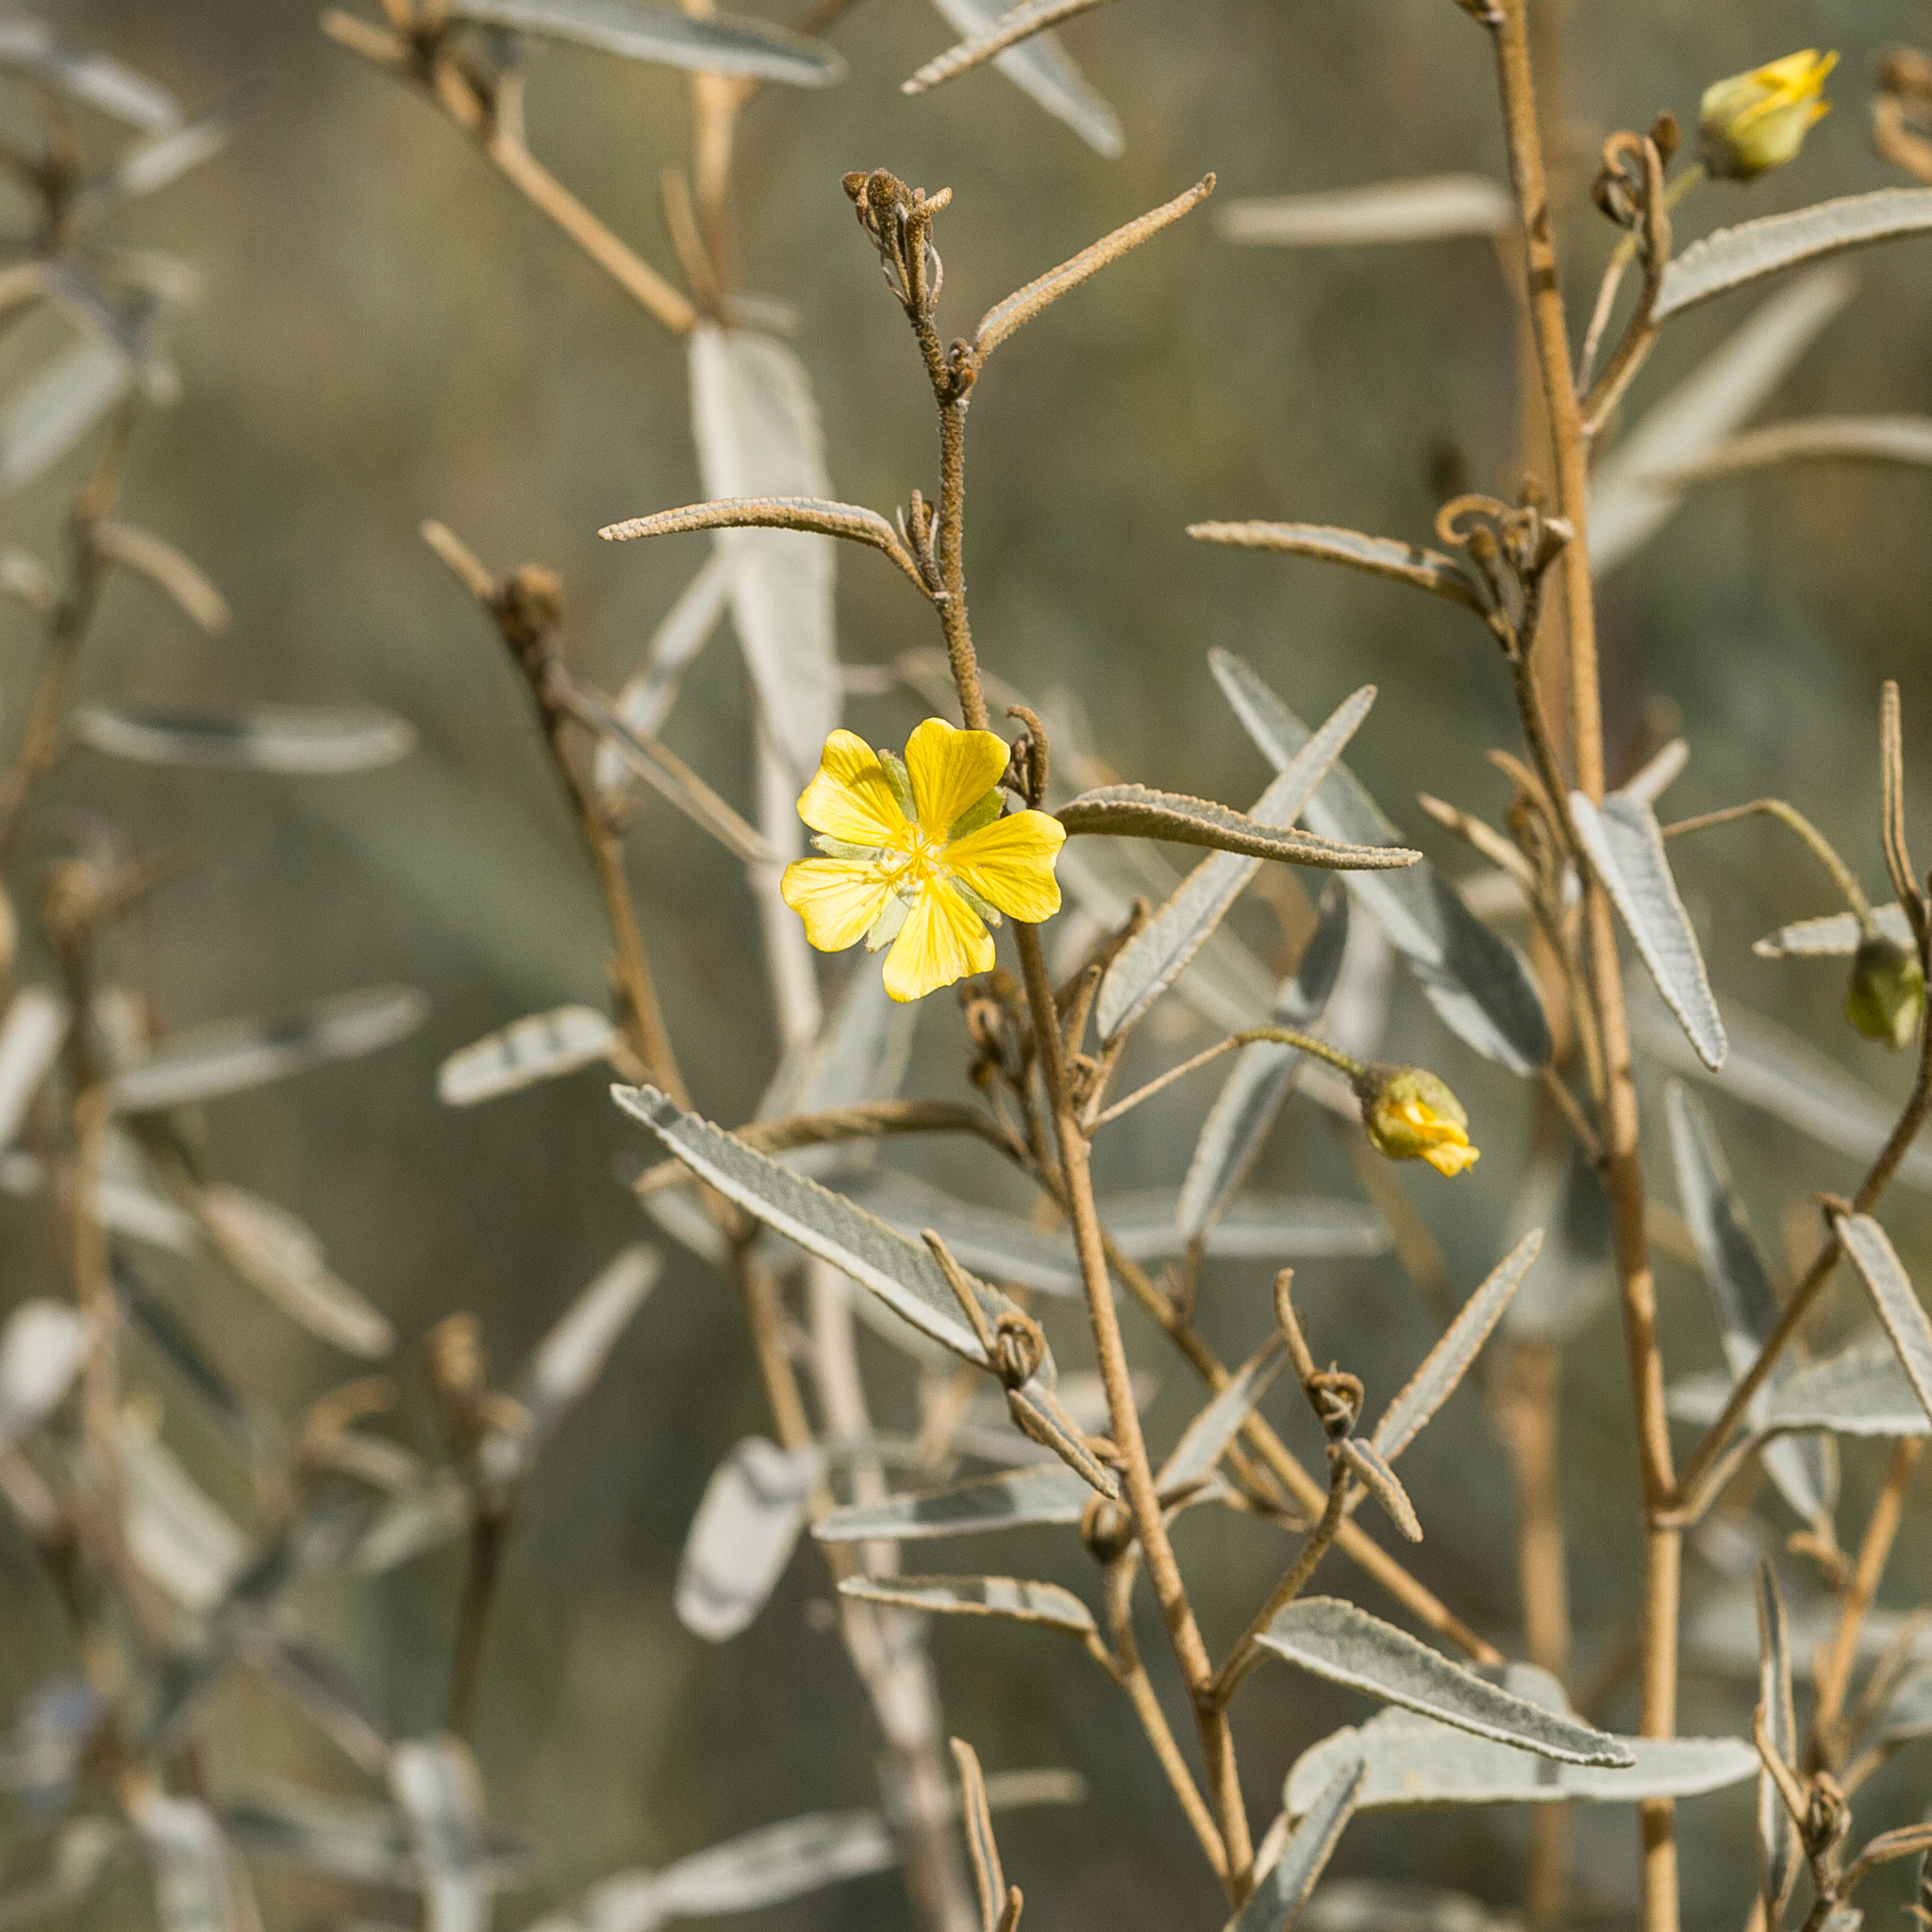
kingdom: Plantae
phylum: Tracheophyta
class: Magnoliopsida
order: Malvales
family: Malvaceae
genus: Sida
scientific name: Sida calyxhymenia
